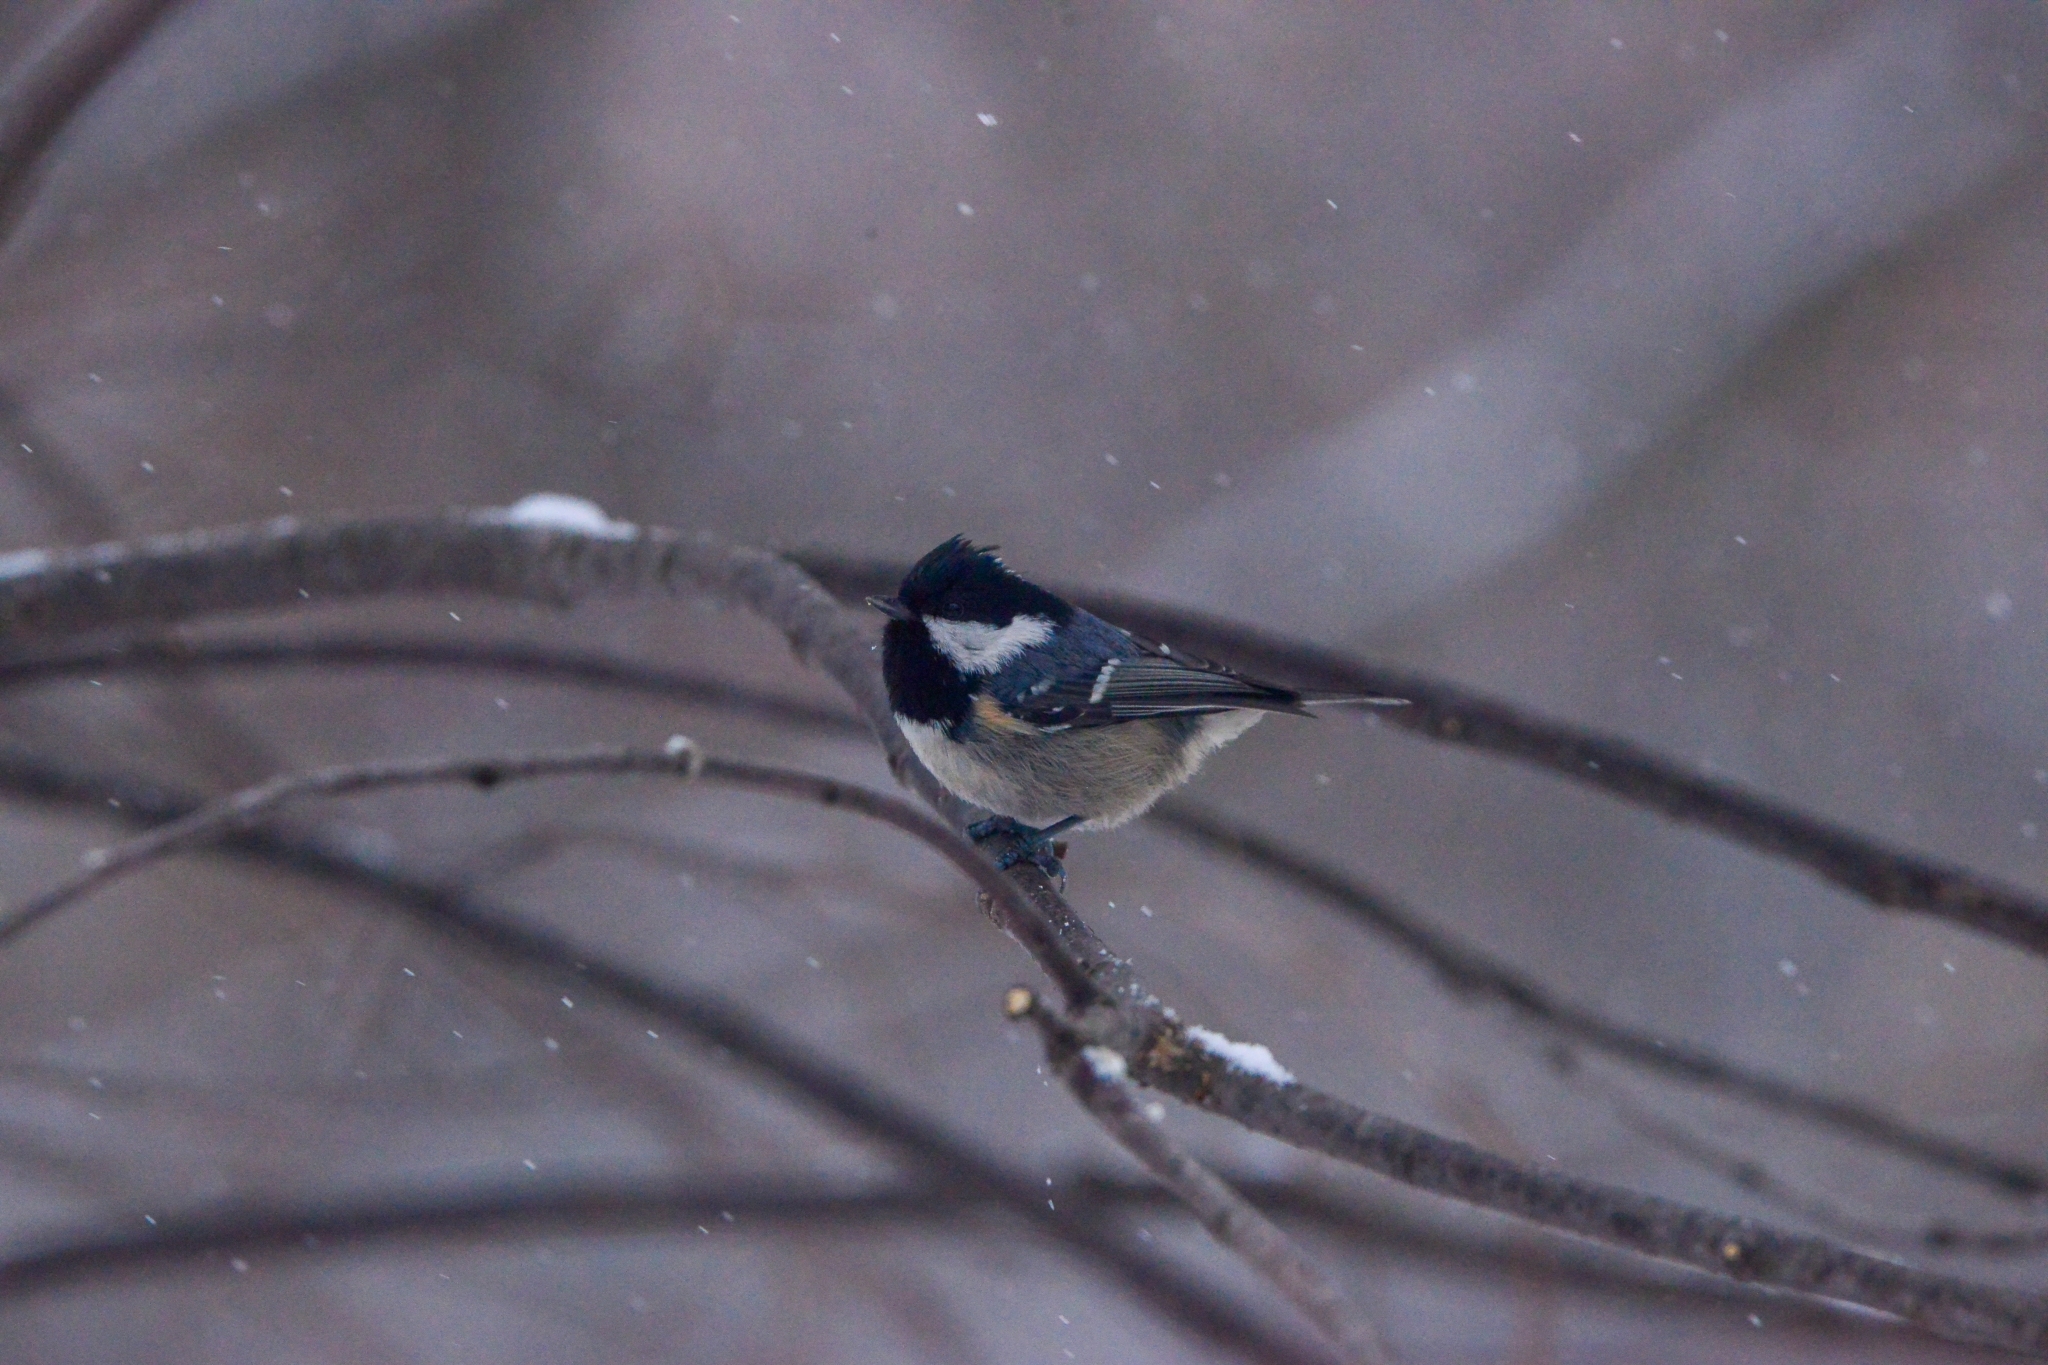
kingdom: Animalia
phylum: Chordata
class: Aves
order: Passeriformes
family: Paridae
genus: Periparus
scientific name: Periparus ater
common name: Coal tit
